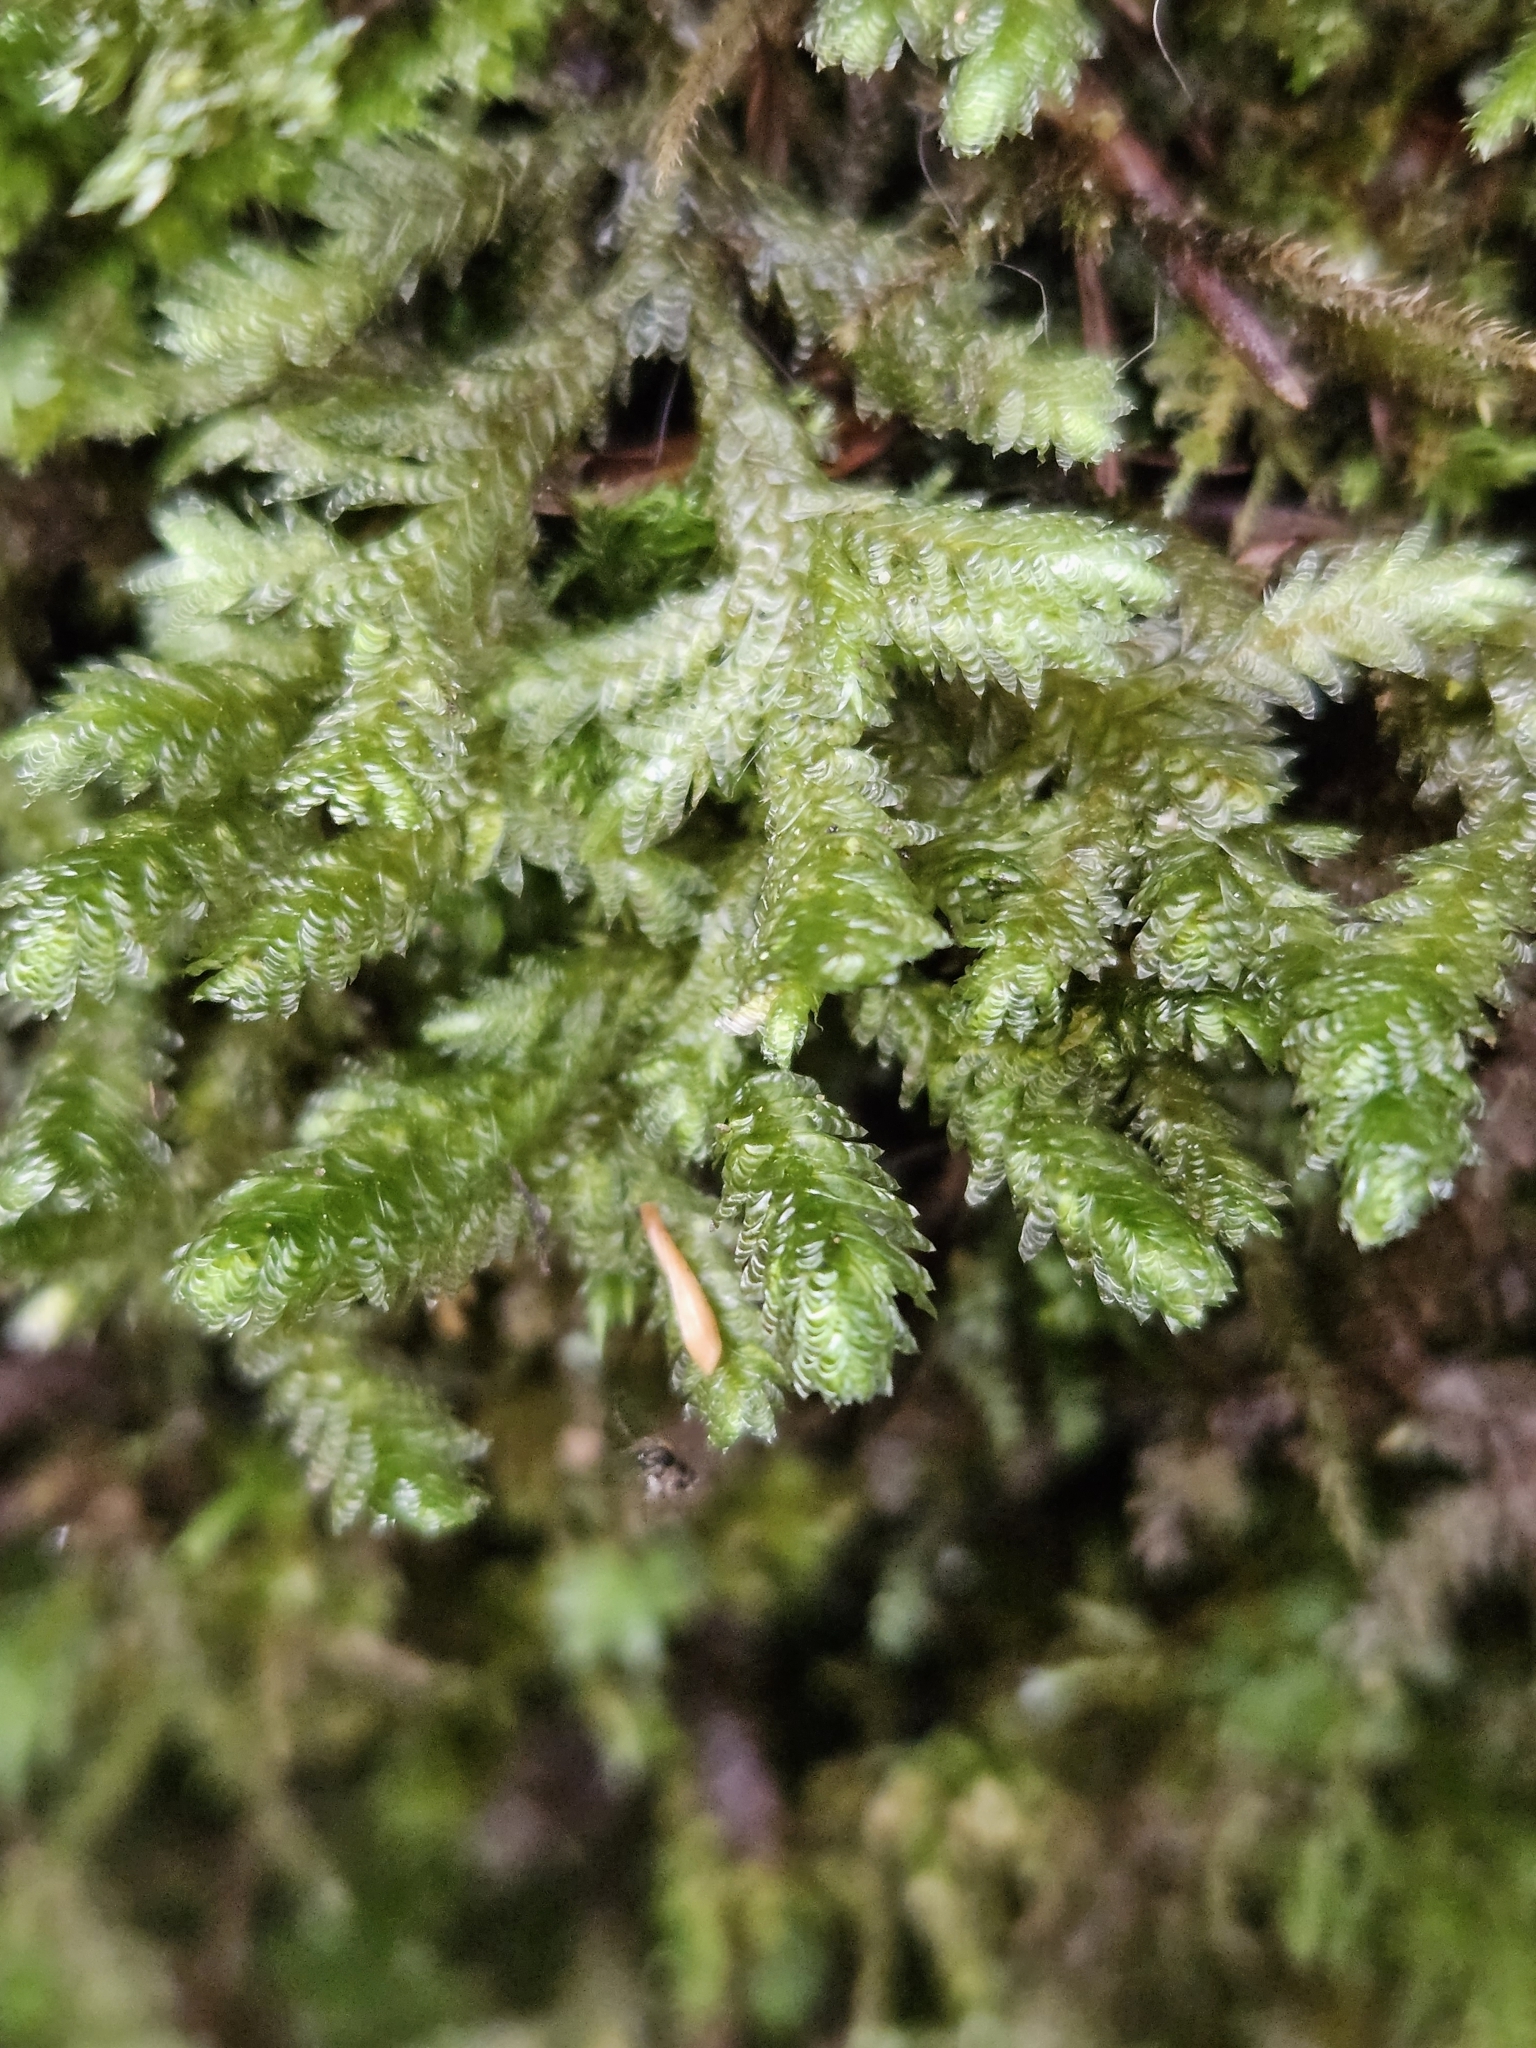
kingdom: Plantae
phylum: Bryophyta
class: Bryopsida
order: Hypnales
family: Neckeraceae
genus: Exsertotheca
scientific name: Exsertotheca crispa
